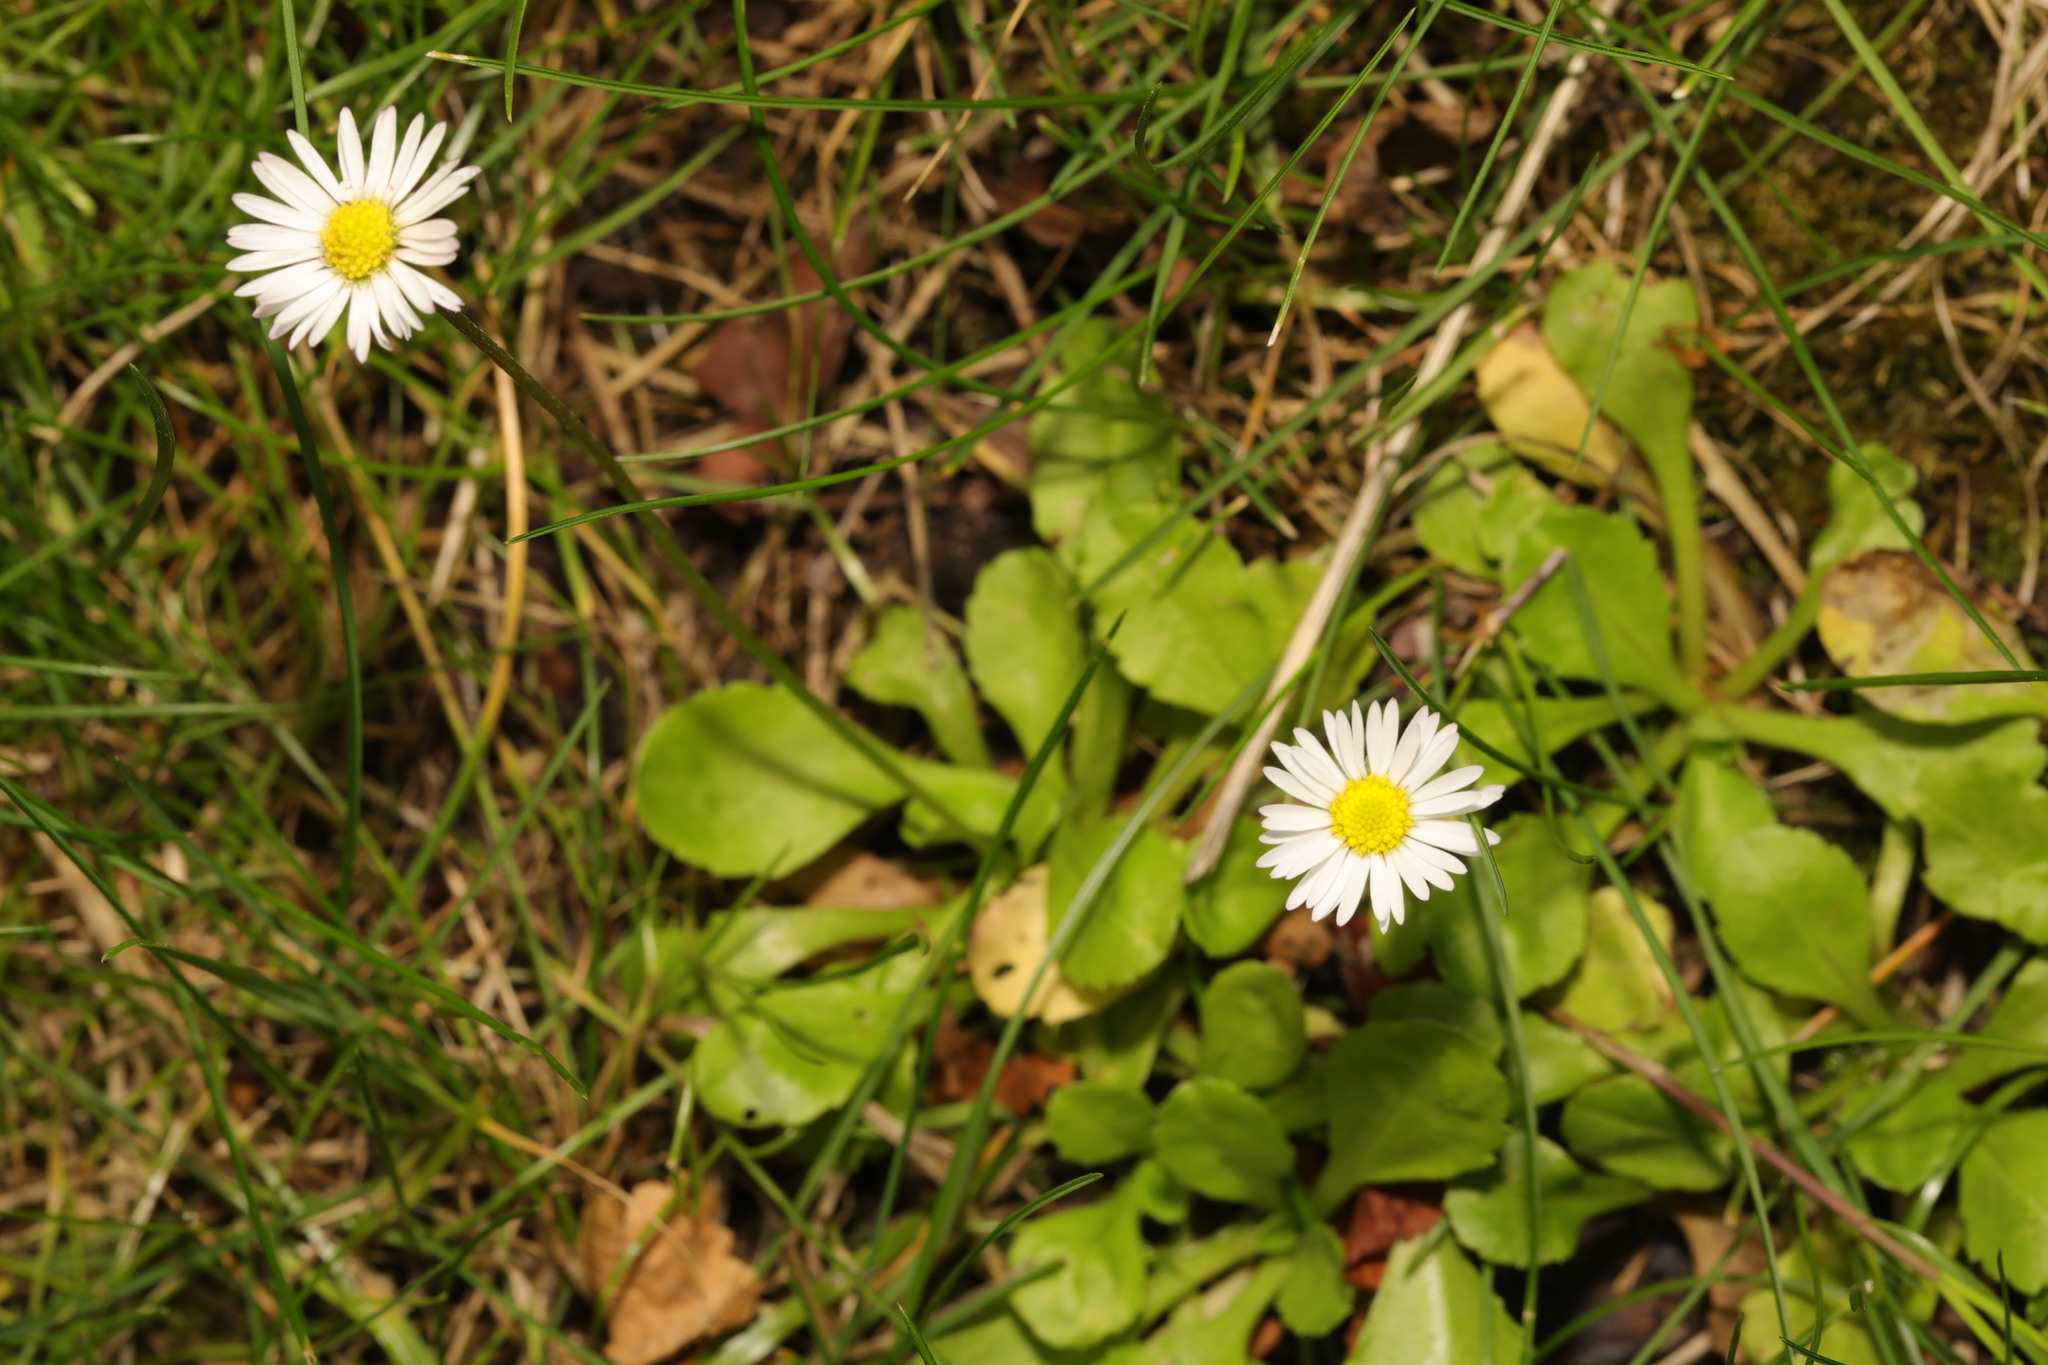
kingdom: Plantae
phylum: Tracheophyta
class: Magnoliopsida
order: Asterales
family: Asteraceae
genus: Bellis
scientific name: Bellis perennis
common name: Lawndaisy
